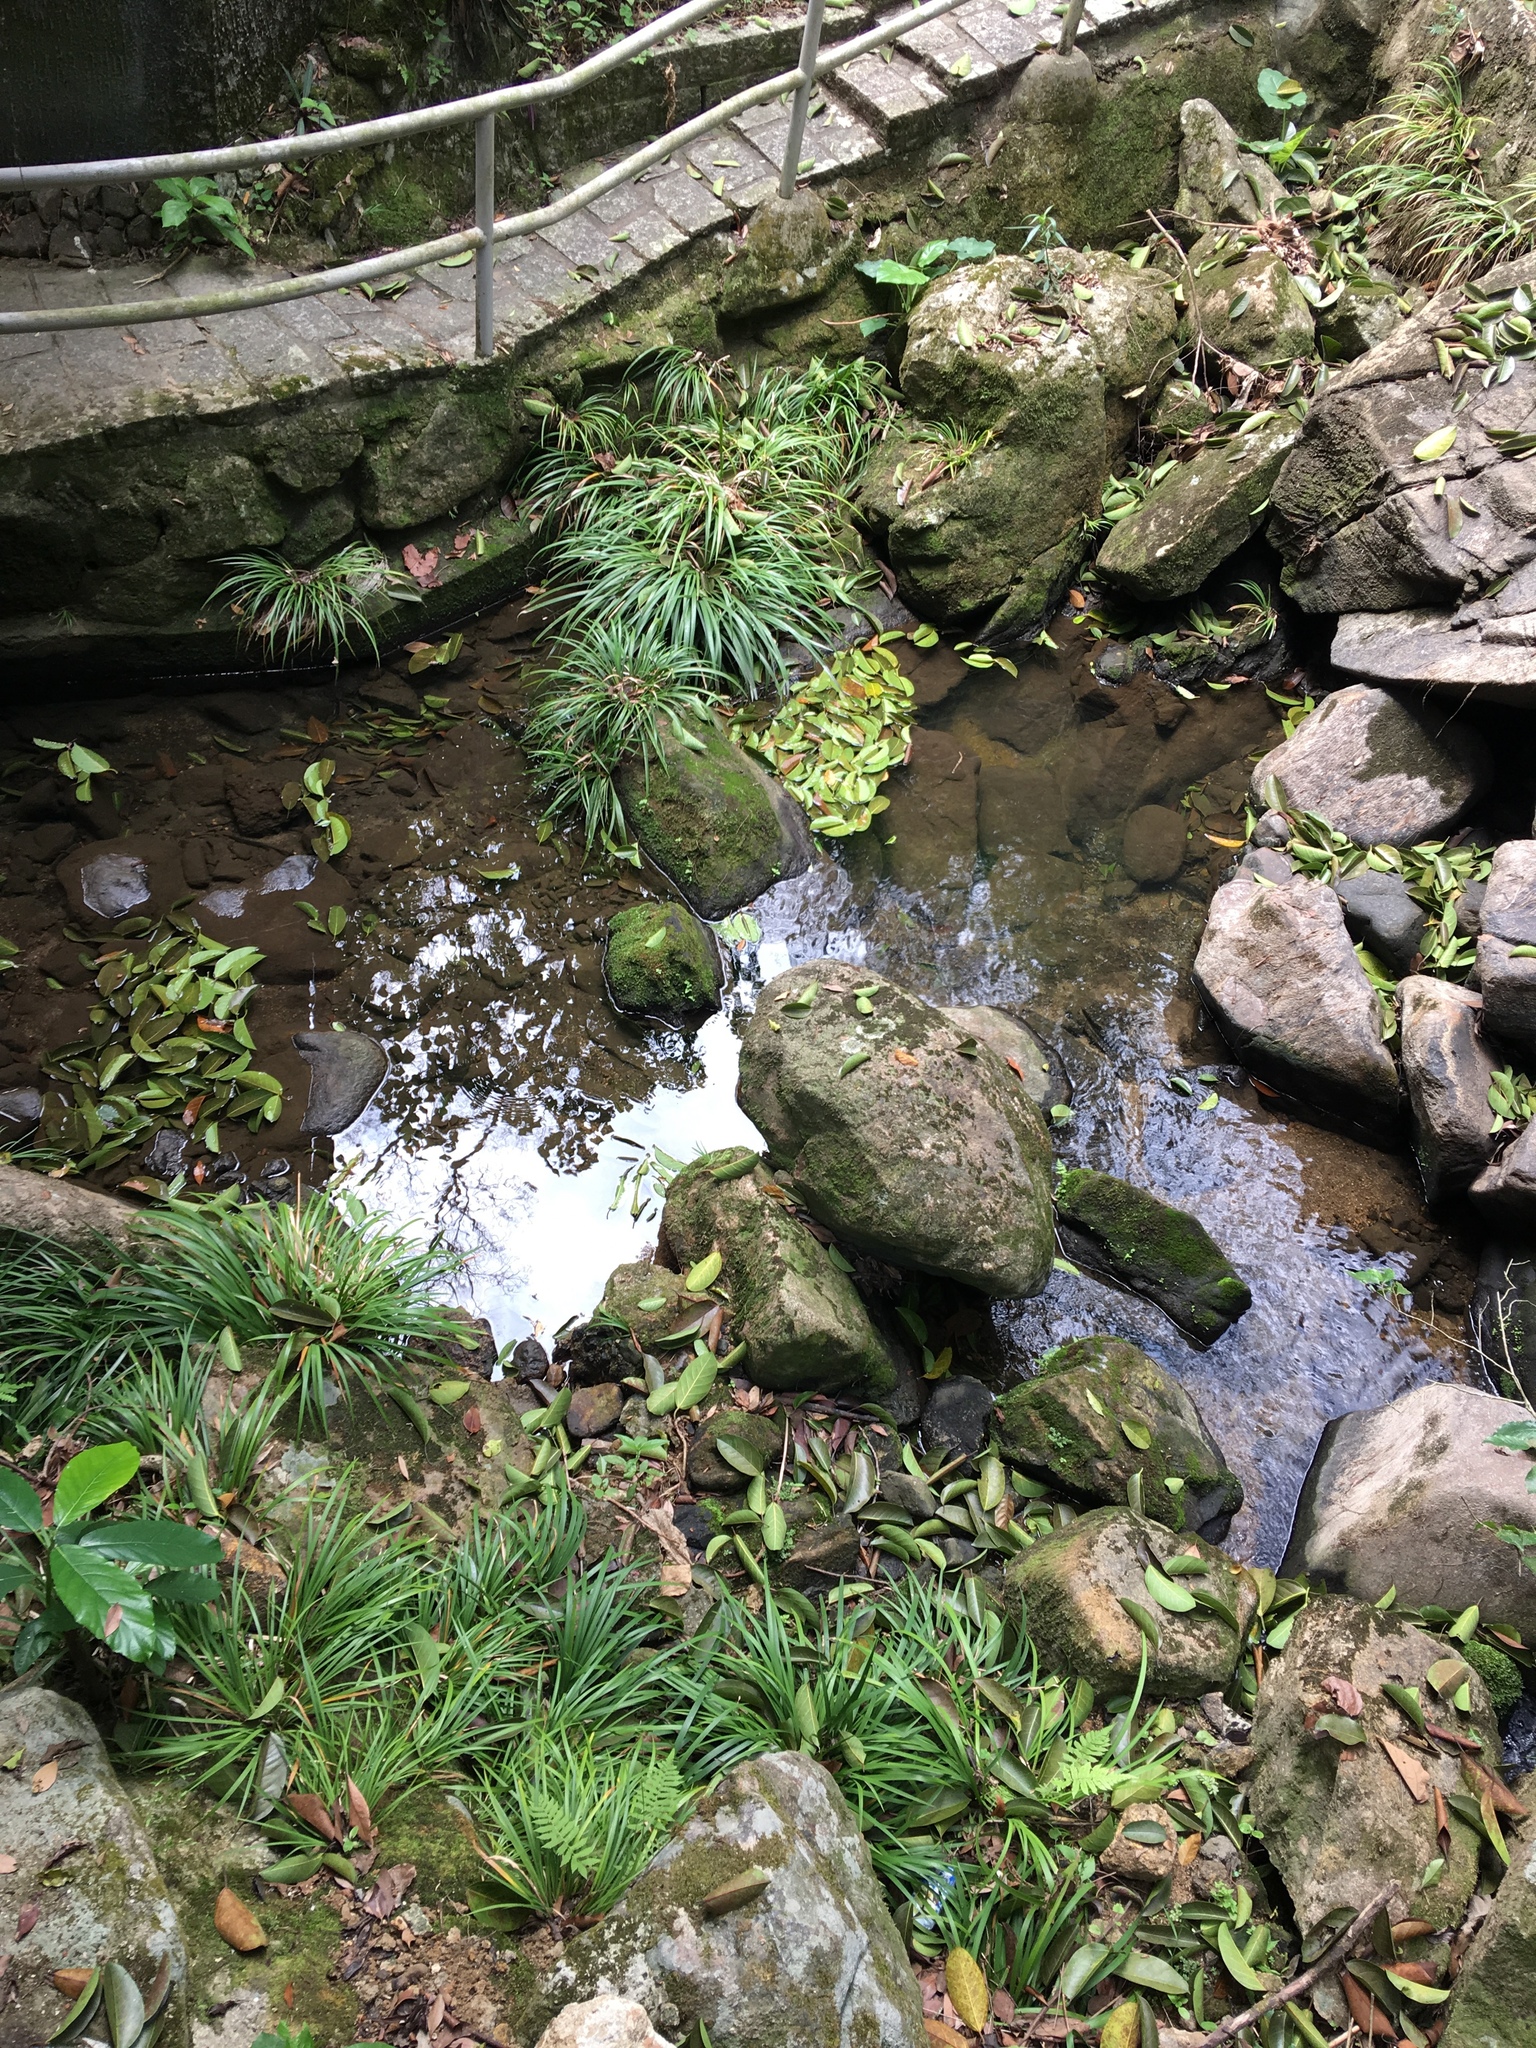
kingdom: Plantae
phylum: Tracheophyta
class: Liliopsida
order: Acorales
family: Acoraceae
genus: Acorus
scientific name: Acorus gramineus
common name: Slender sweet-flag
